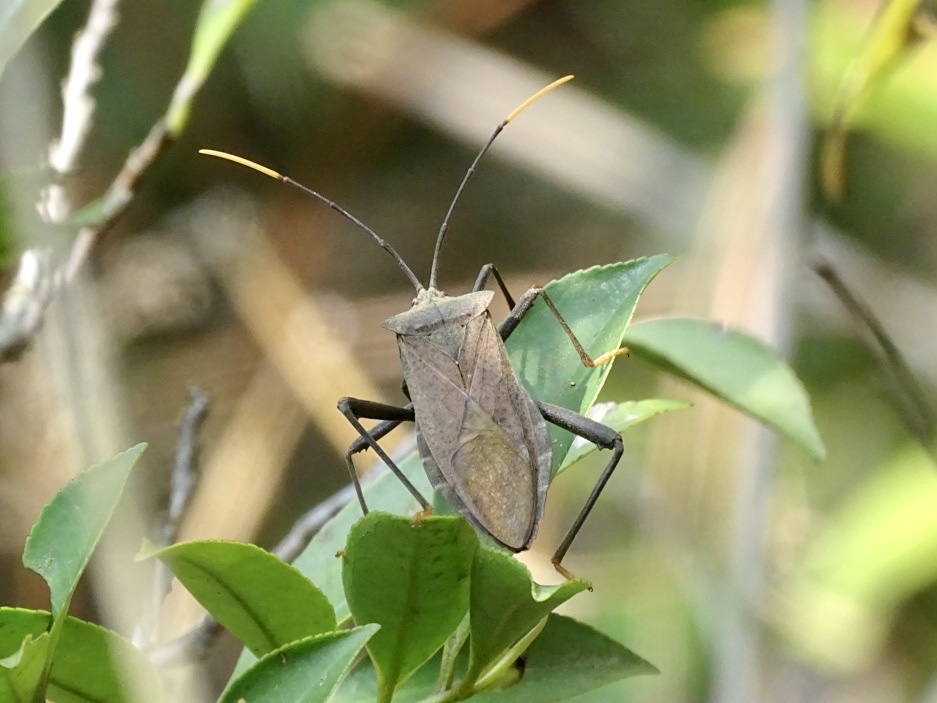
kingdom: Animalia
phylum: Arthropoda
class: Insecta
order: Hemiptera
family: Coreidae
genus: Mictis
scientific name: Mictis fuscipes
